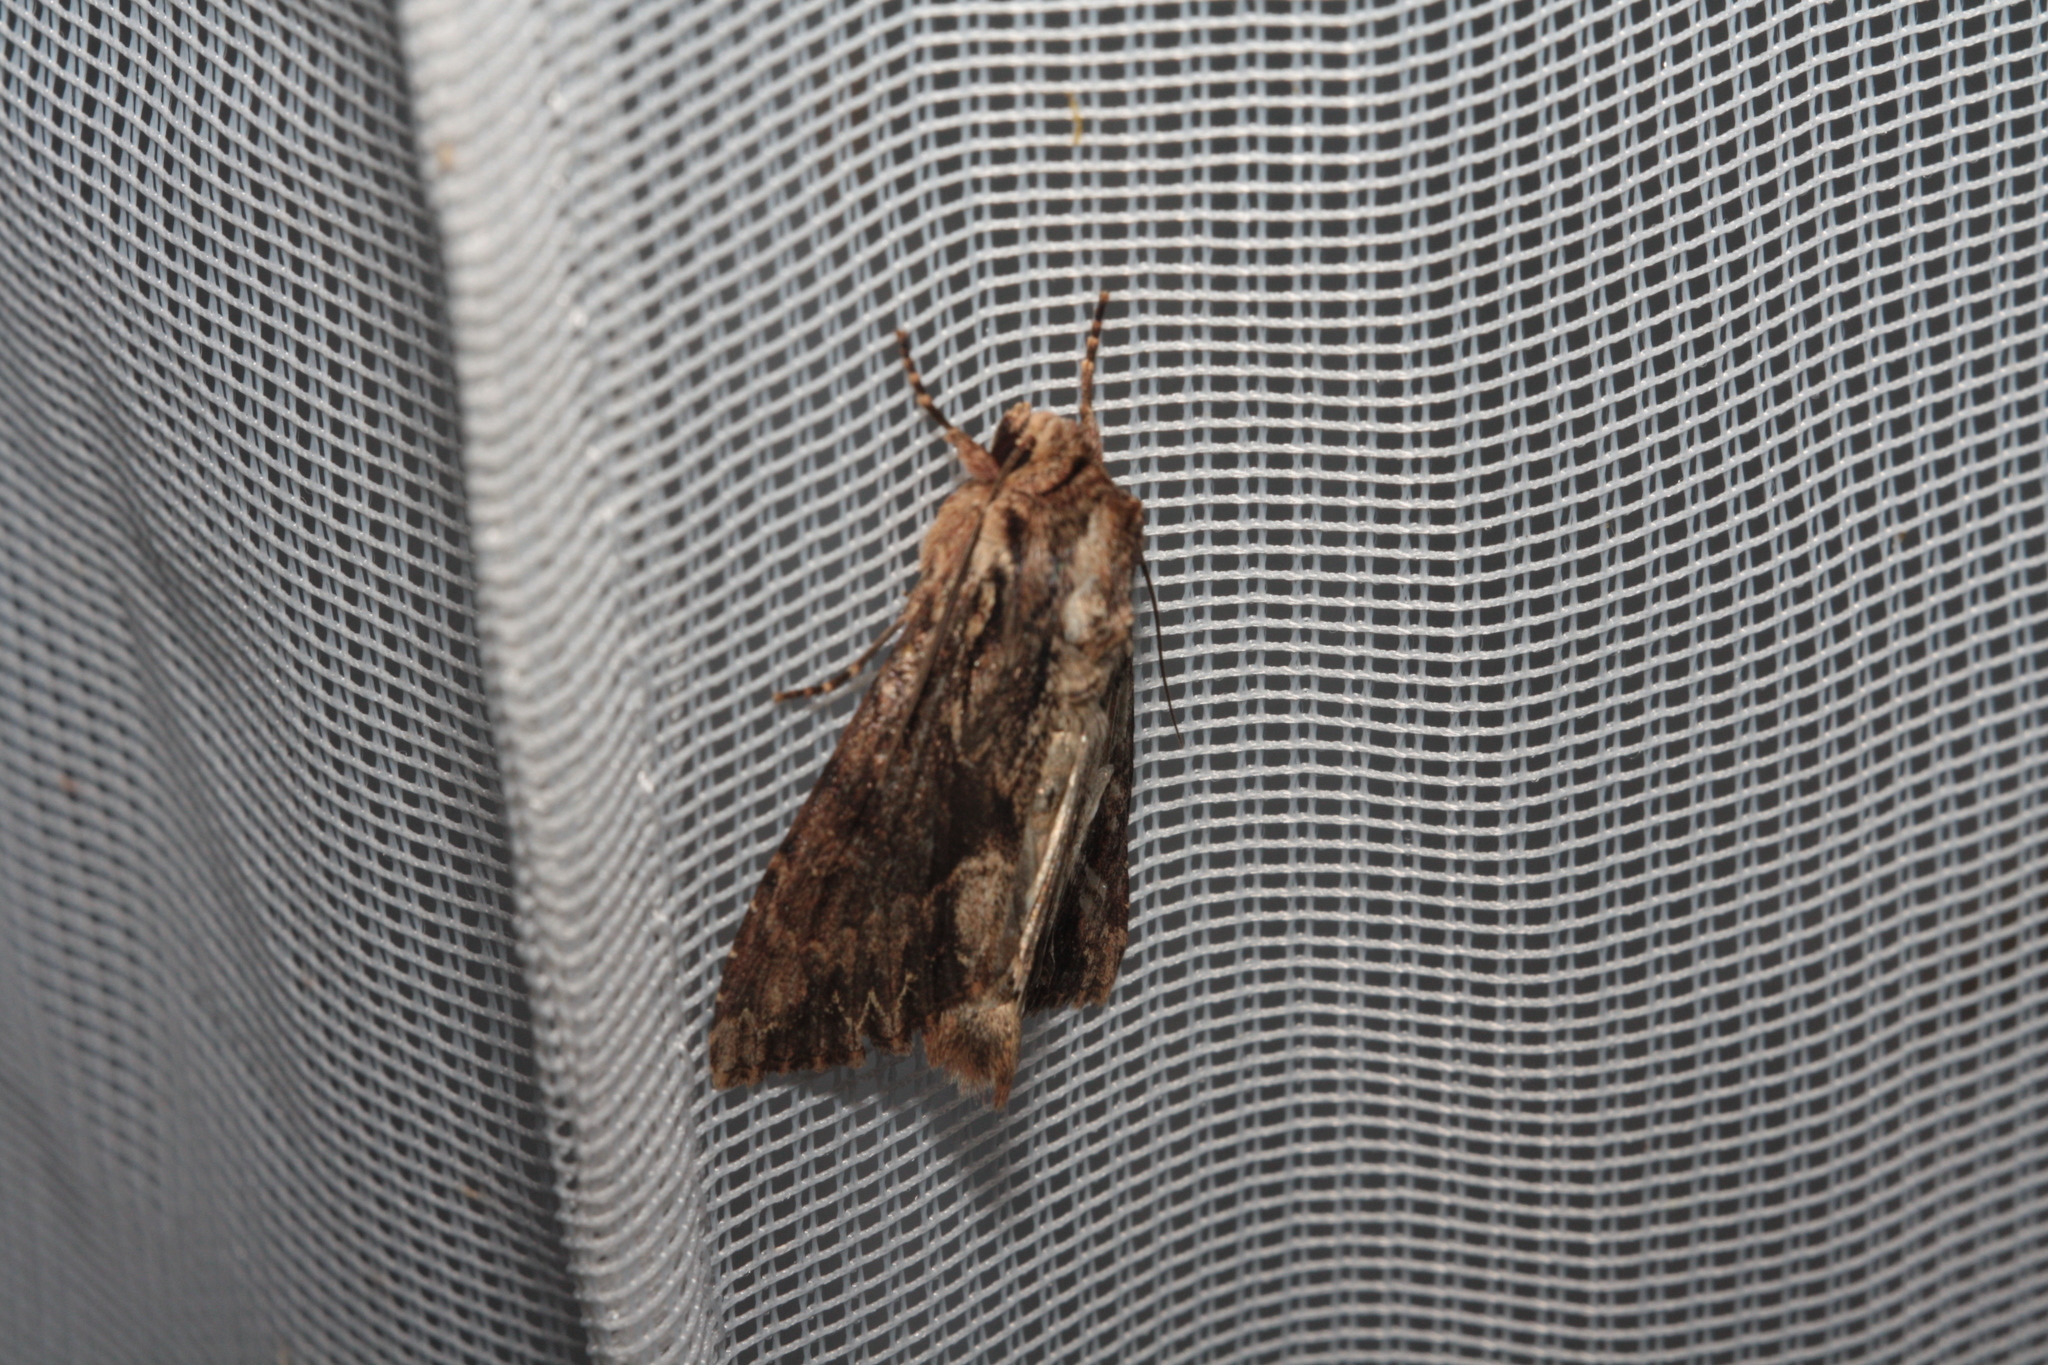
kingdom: Animalia
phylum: Arthropoda
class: Insecta
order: Lepidoptera
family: Noctuidae
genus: Apamea
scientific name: Apamea monoglypha
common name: Dark arches
